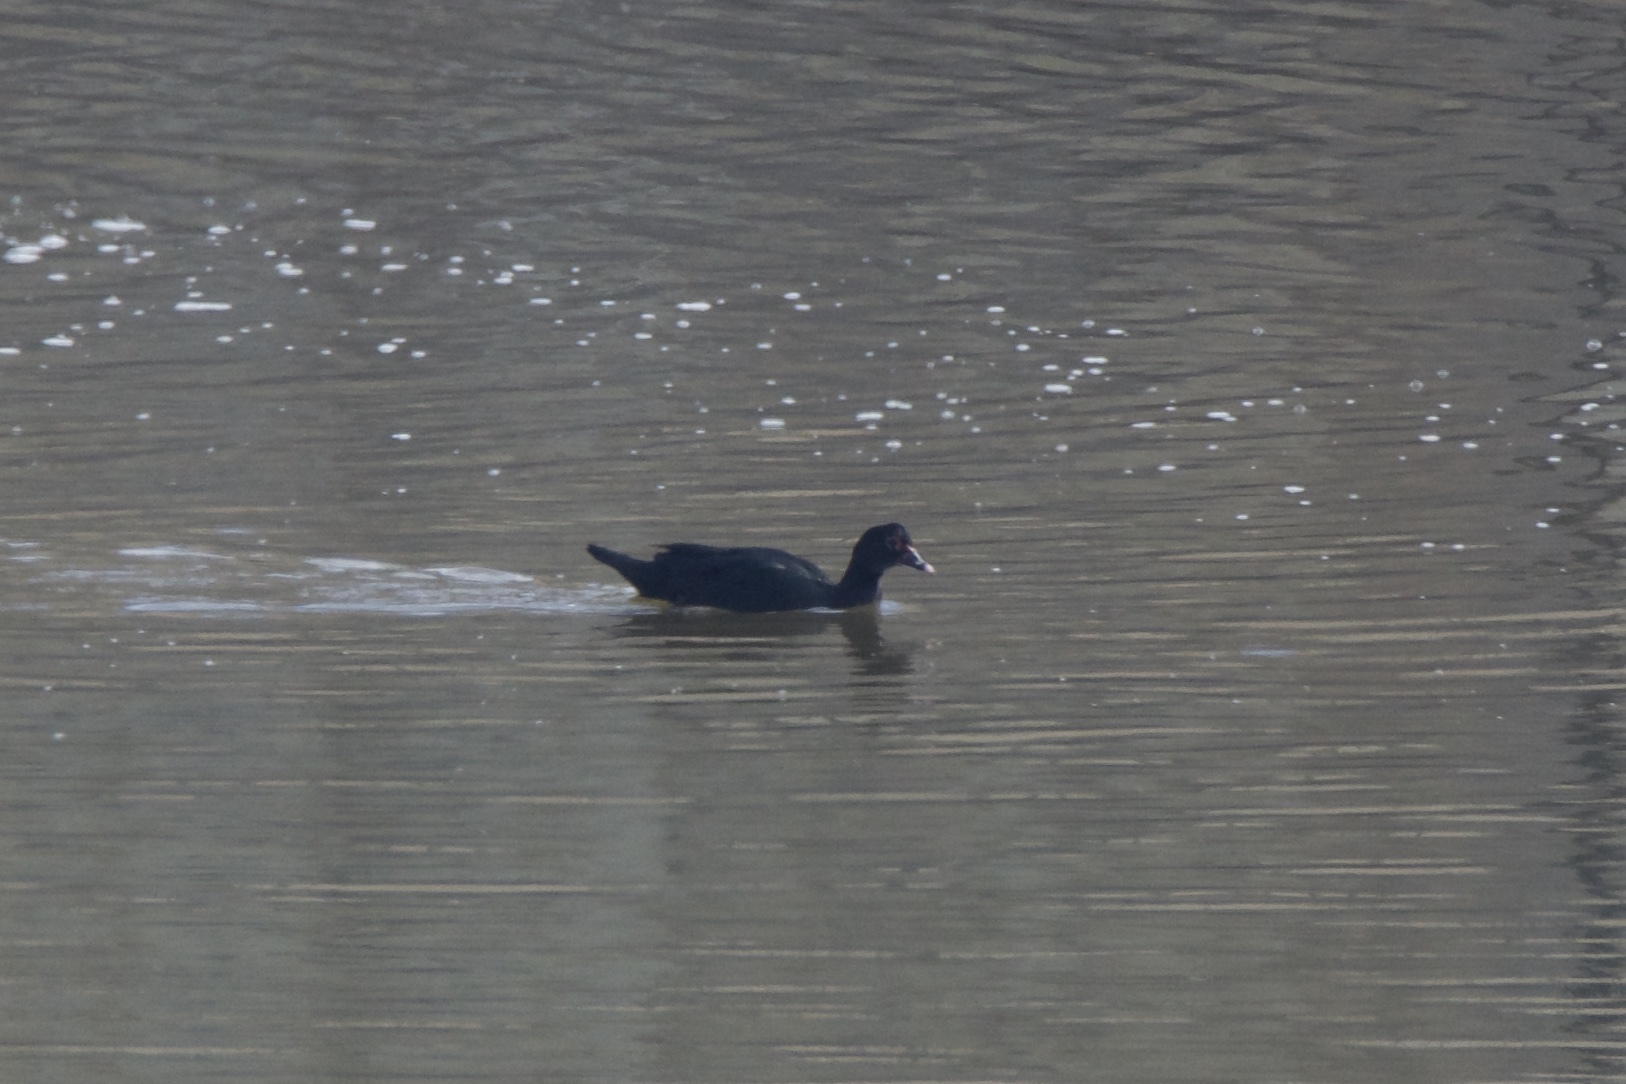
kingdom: Animalia
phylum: Chordata
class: Aves
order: Anseriformes
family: Anatidae
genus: Cairina
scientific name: Cairina moschata
